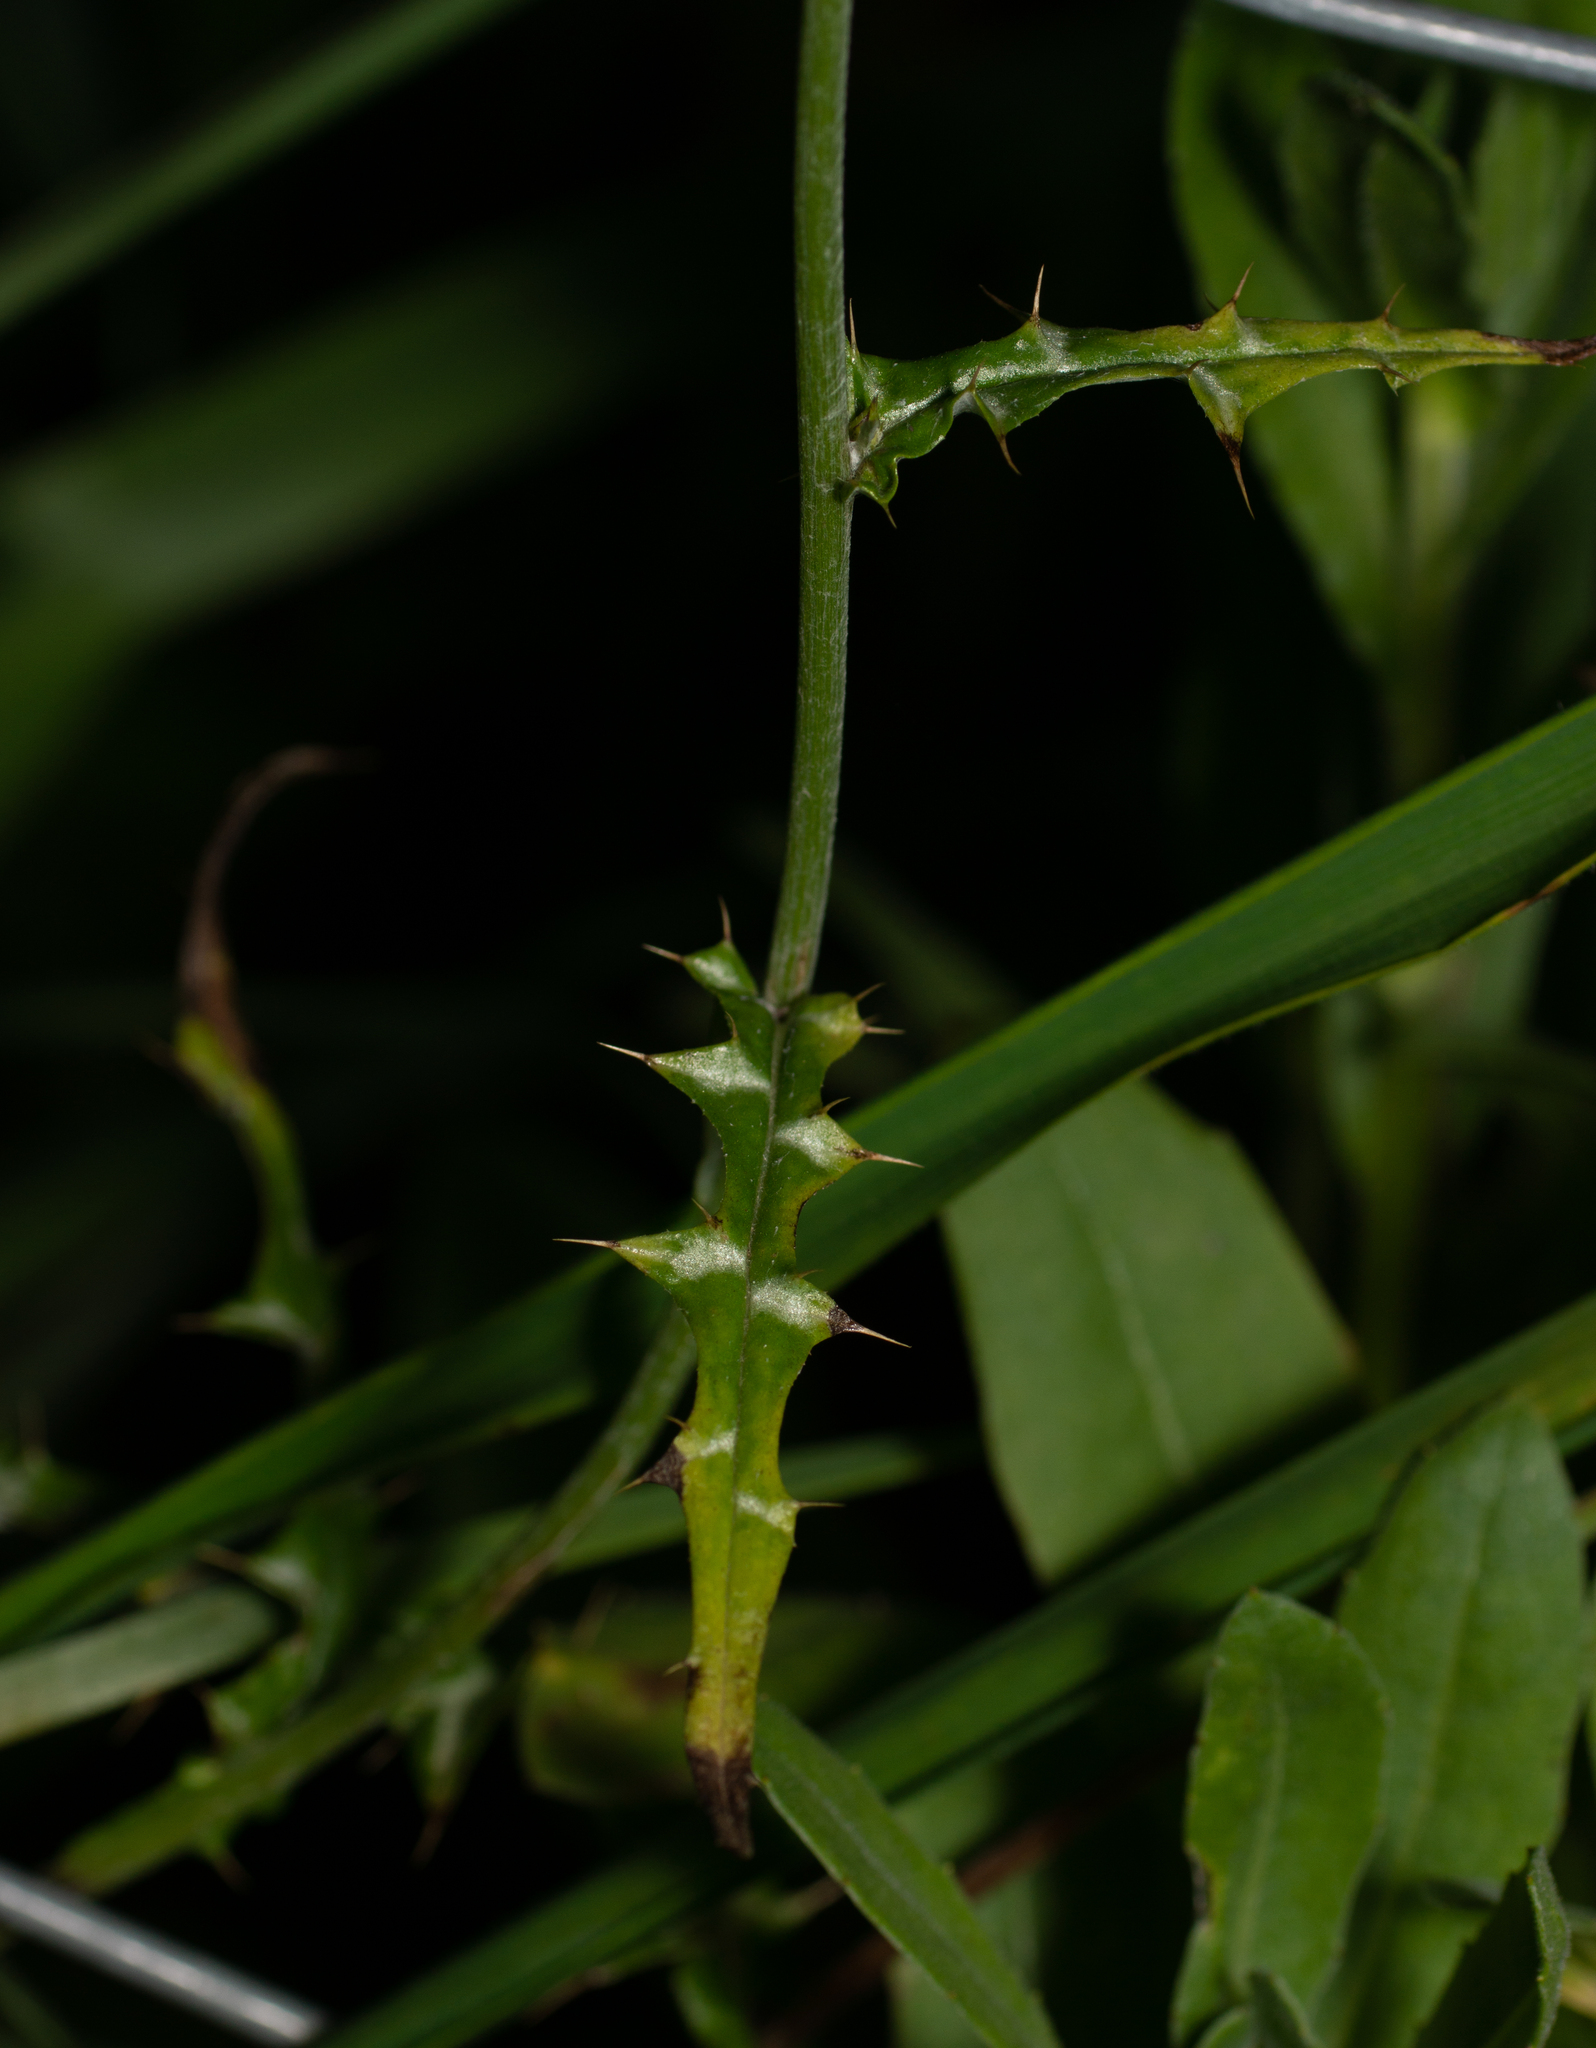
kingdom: Plantae
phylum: Tracheophyta
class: Magnoliopsida
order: Asterales
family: Asteraceae
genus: Galactites
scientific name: Galactites tomentosa
